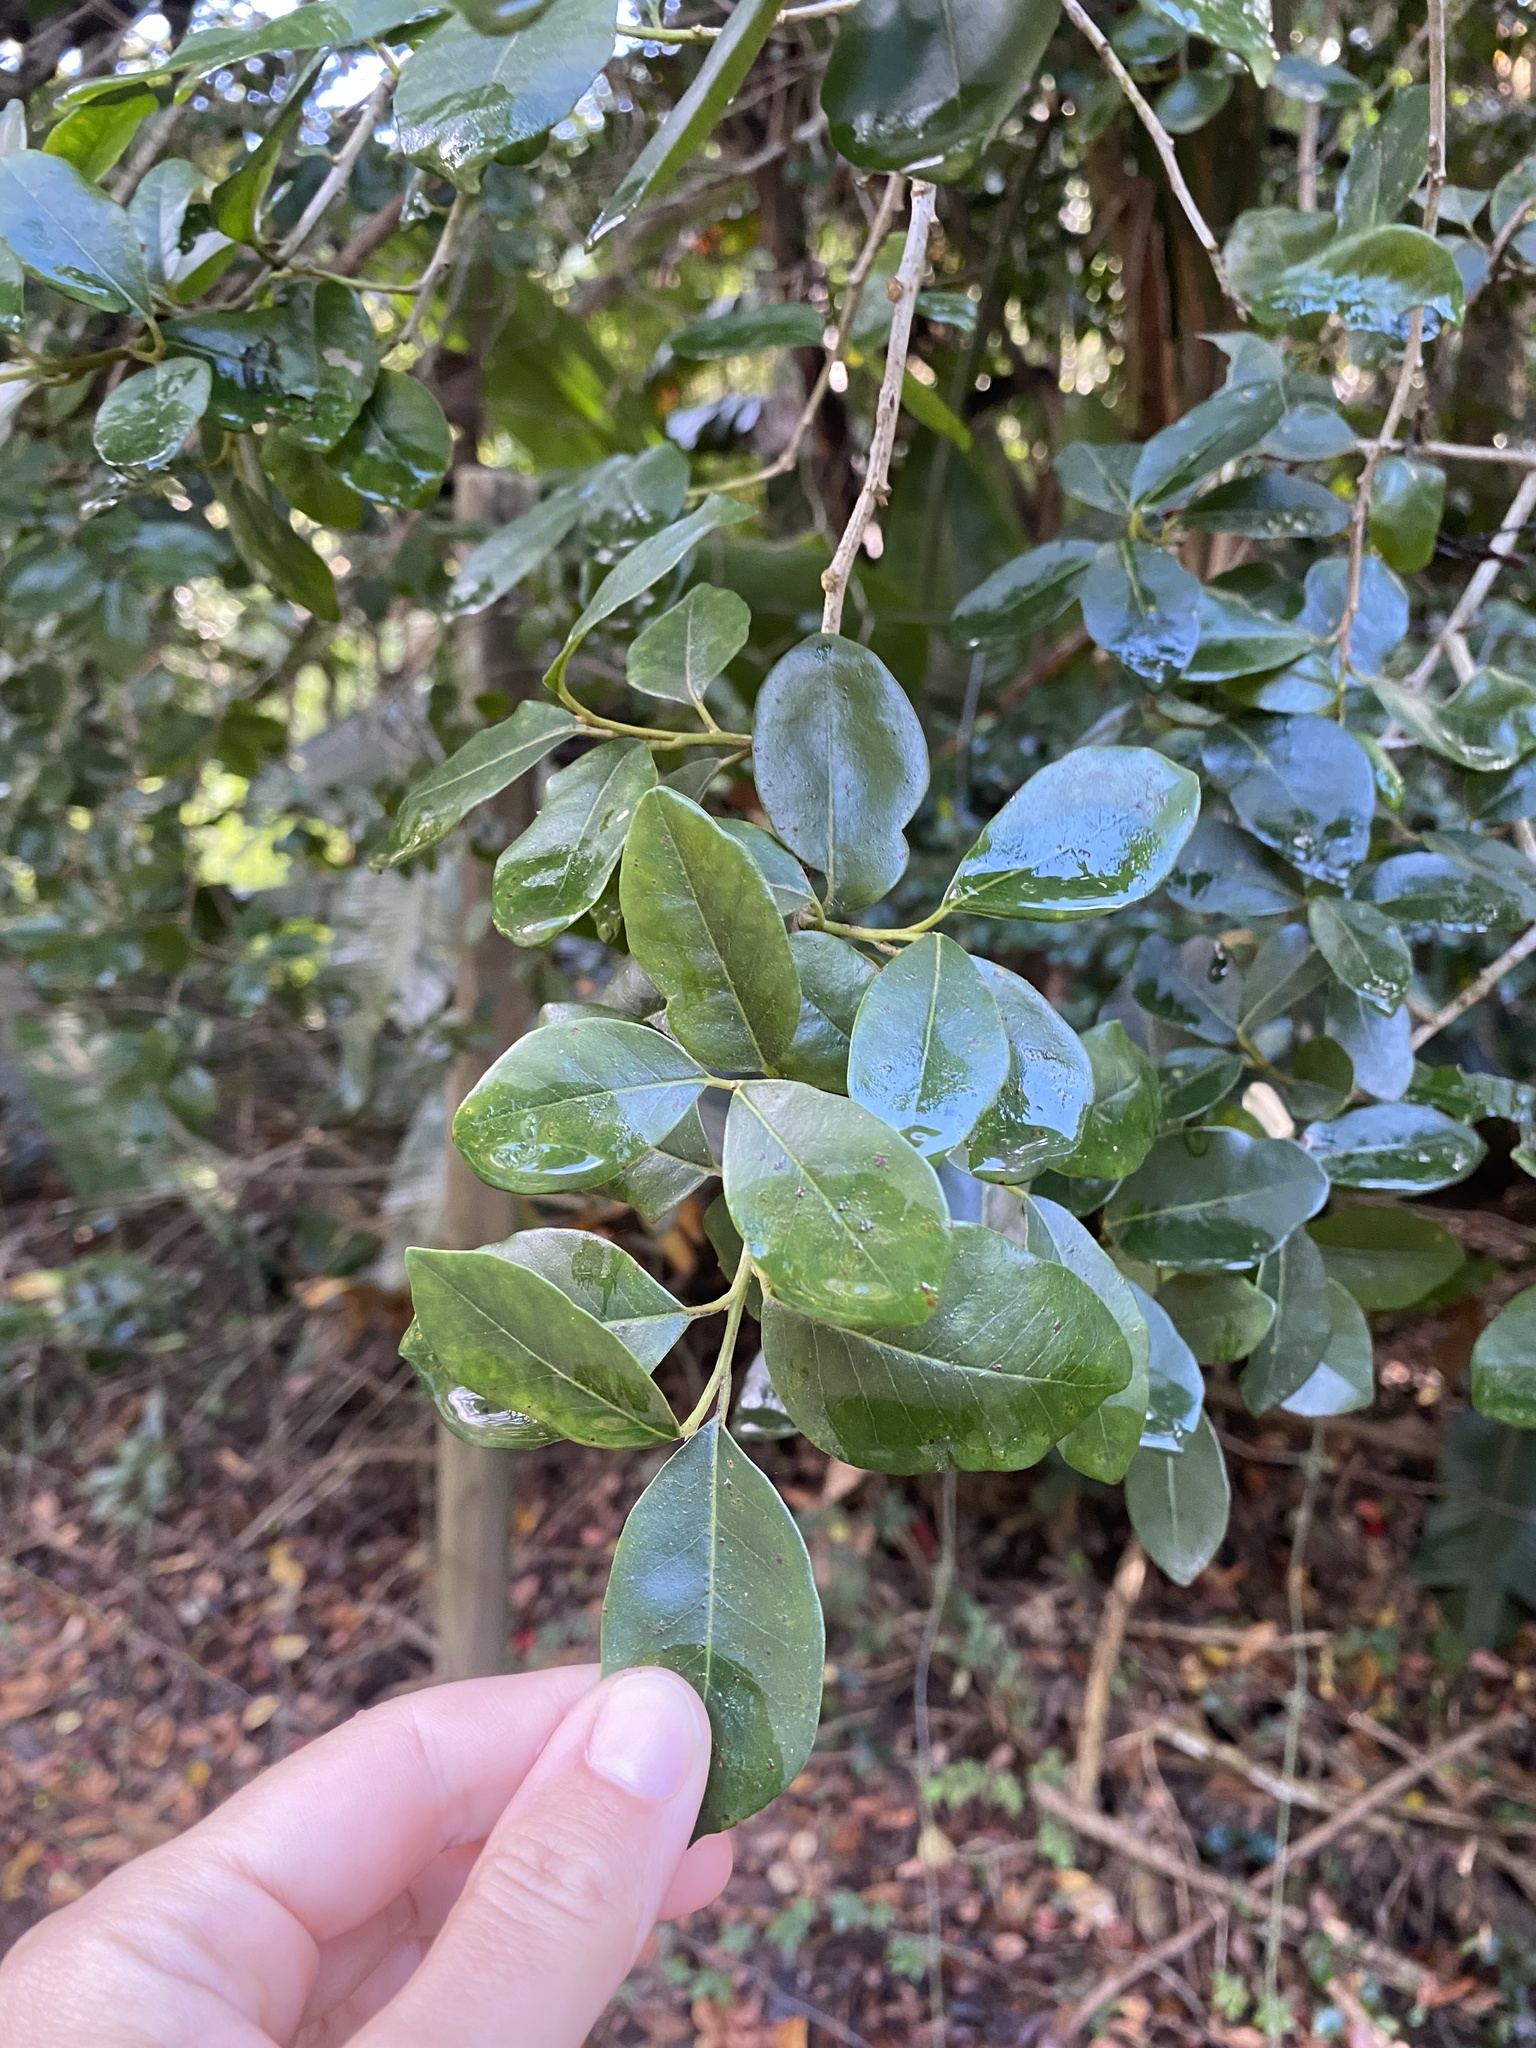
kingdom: Plantae
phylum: Tracheophyta
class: Magnoliopsida
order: Metteniusales
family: Metteniusaceae
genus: Apodytes
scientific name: Apodytes dimidiata
